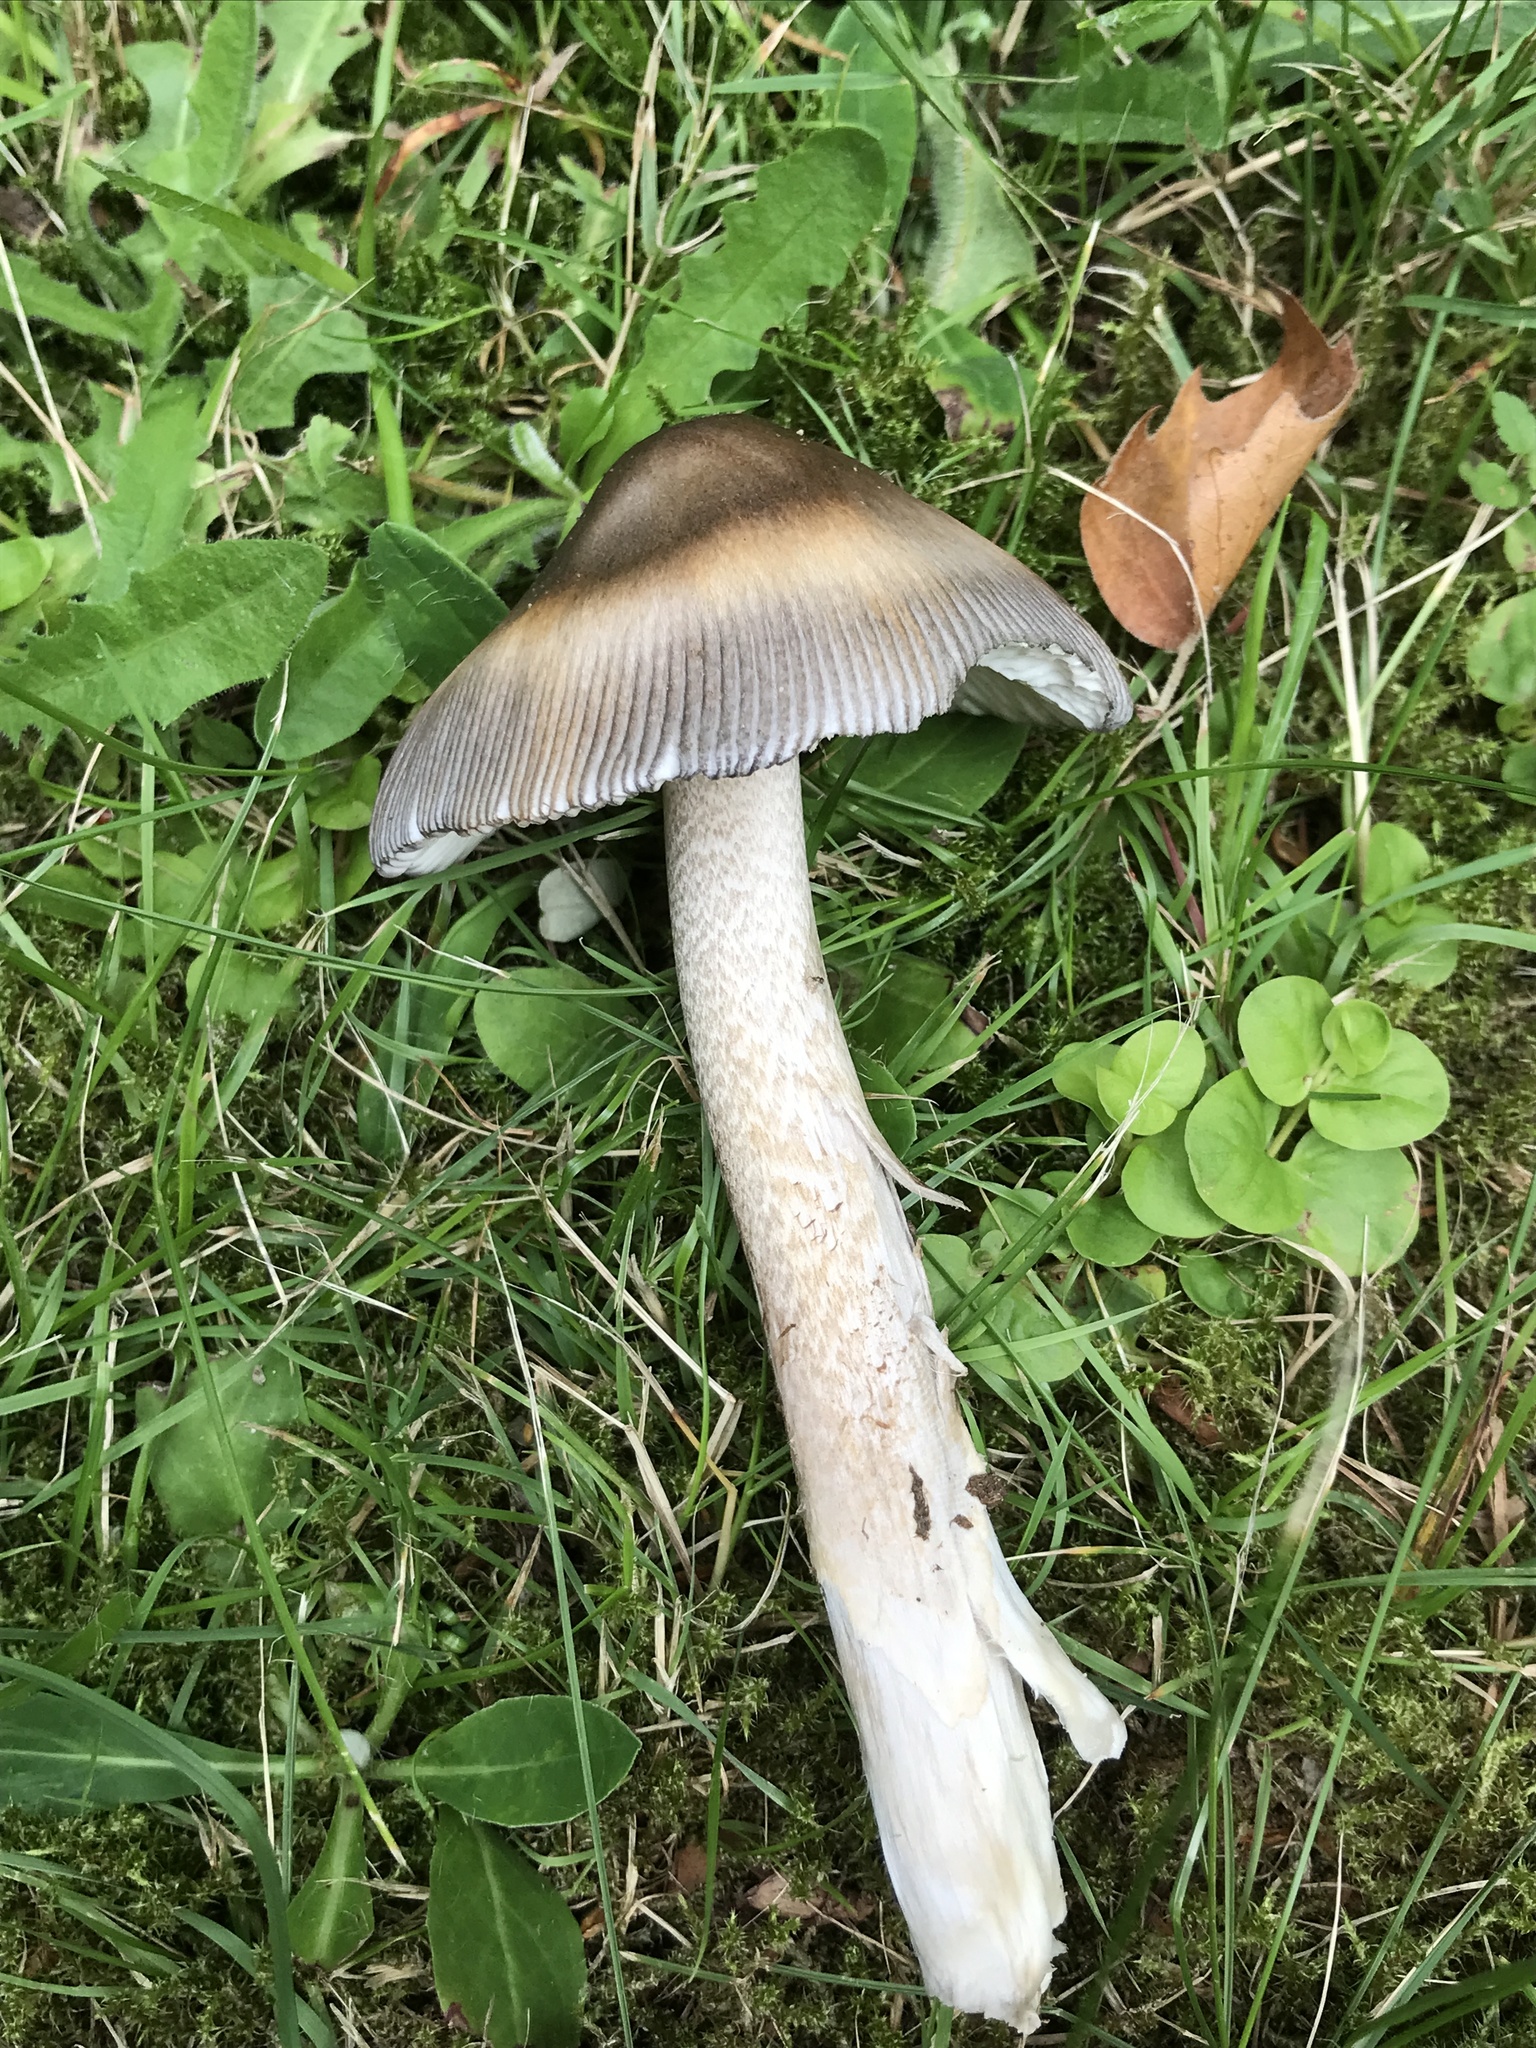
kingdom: Fungi
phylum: Basidiomycota
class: Agaricomycetes
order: Agaricales
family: Amanitaceae
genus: Amanita
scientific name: Amanita battarrae
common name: Banded amanita
